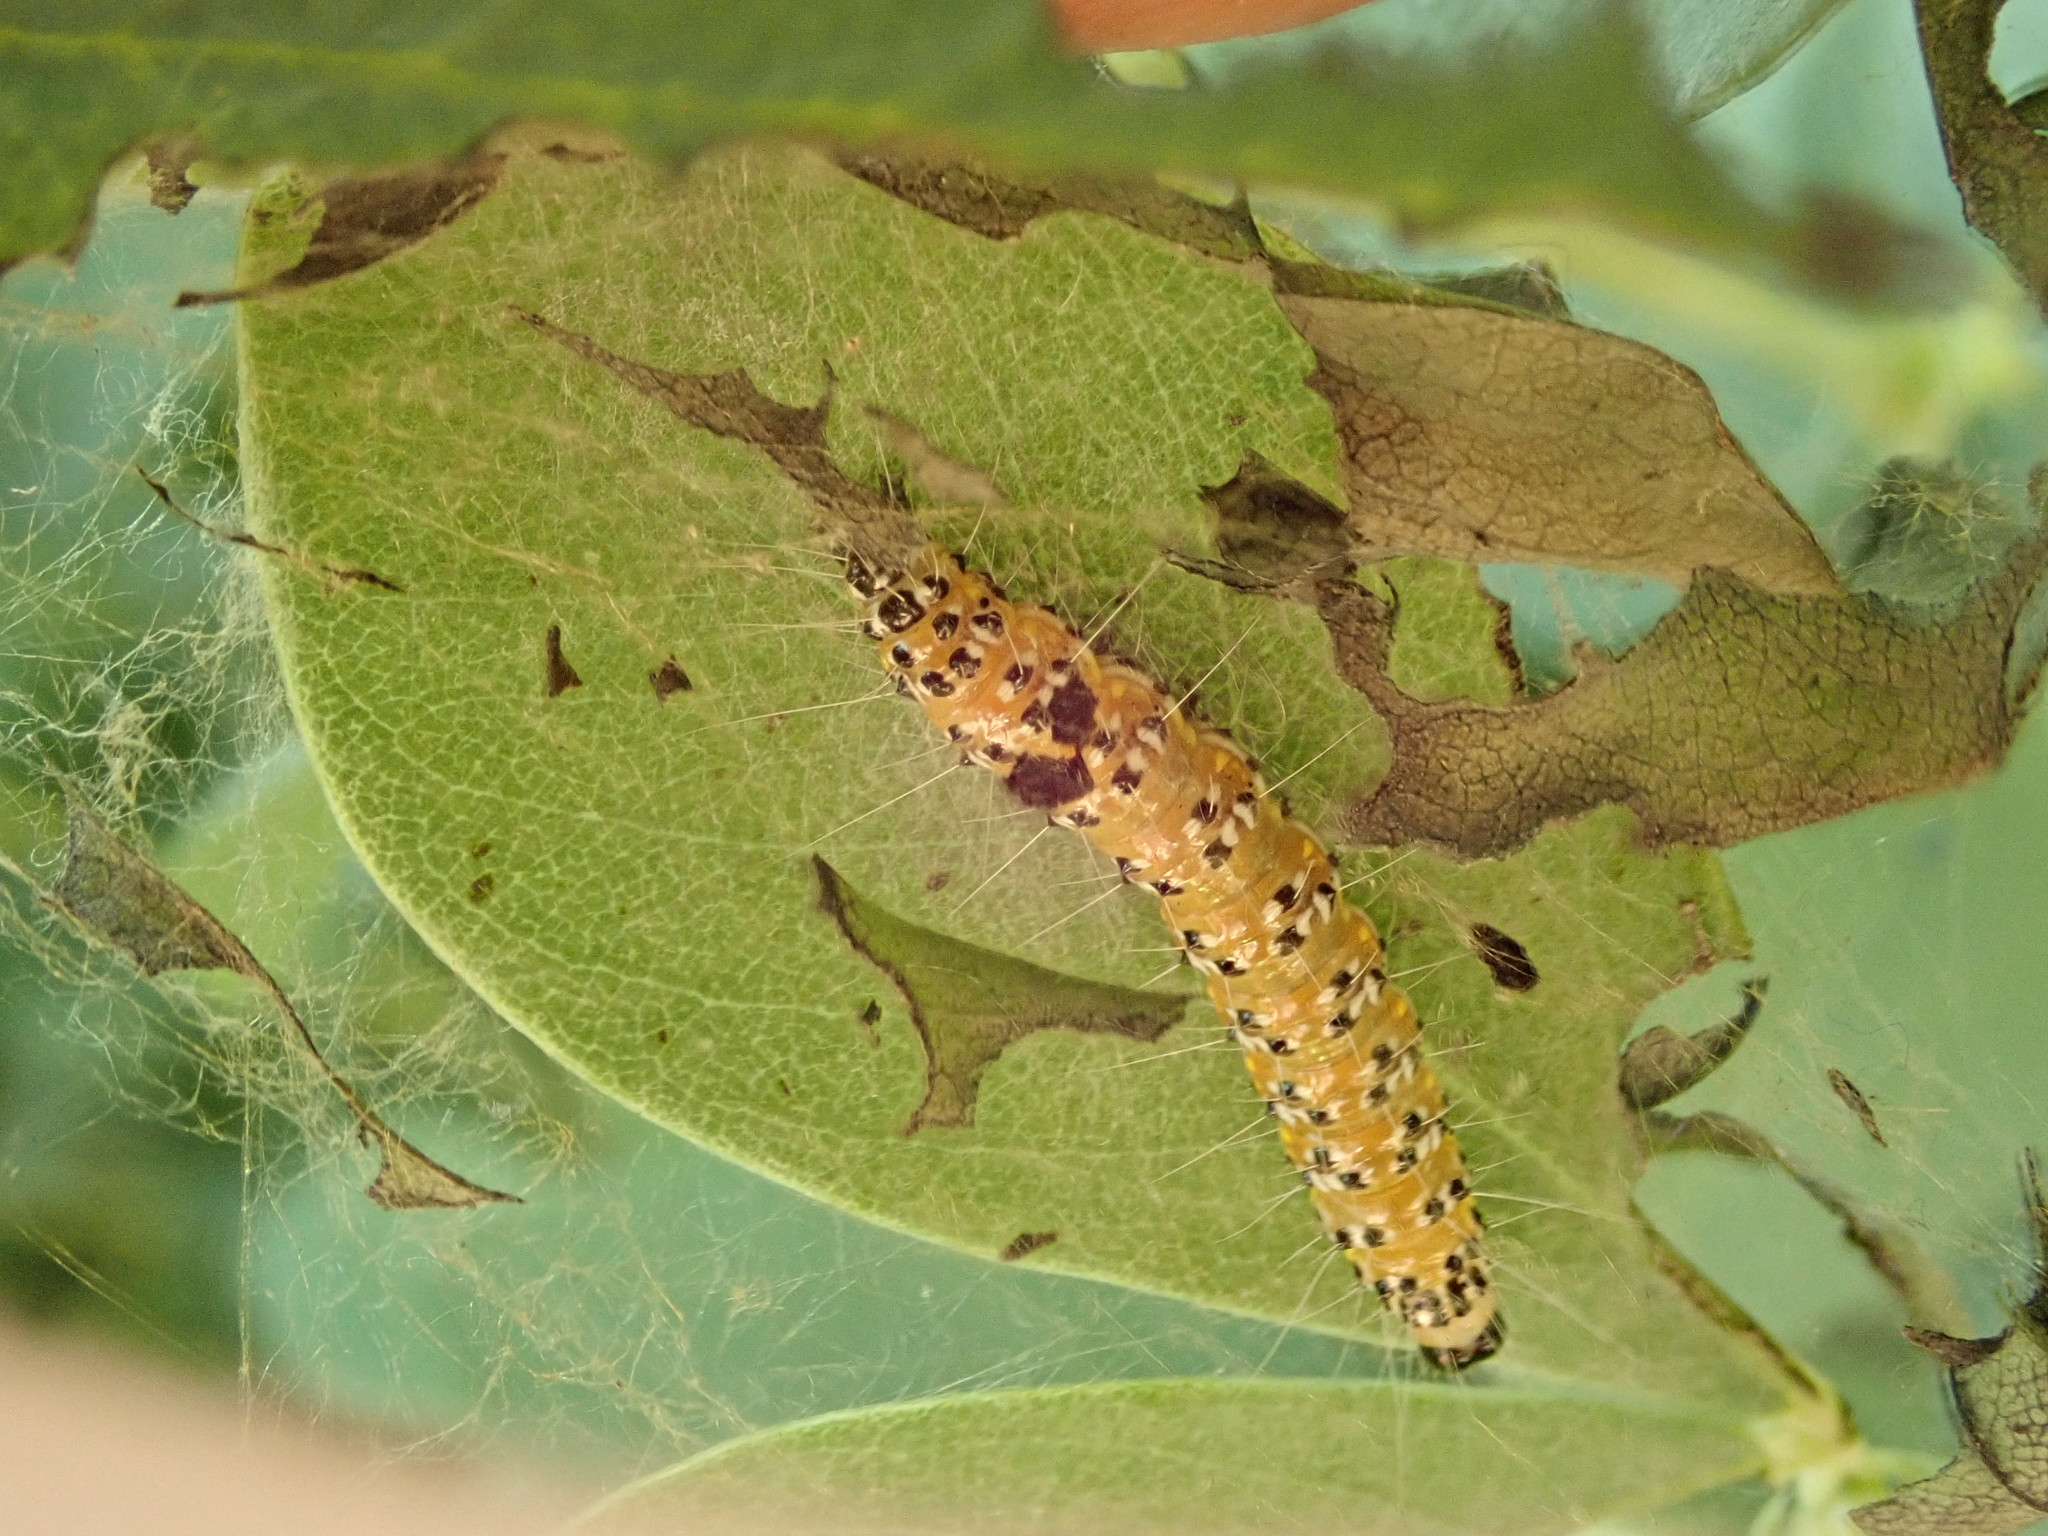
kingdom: Animalia
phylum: Arthropoda
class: Insecta
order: Lepidoptera
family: Crambidae
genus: Uresiphita
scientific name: Uresiphita reversalis
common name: Genista broom moth
